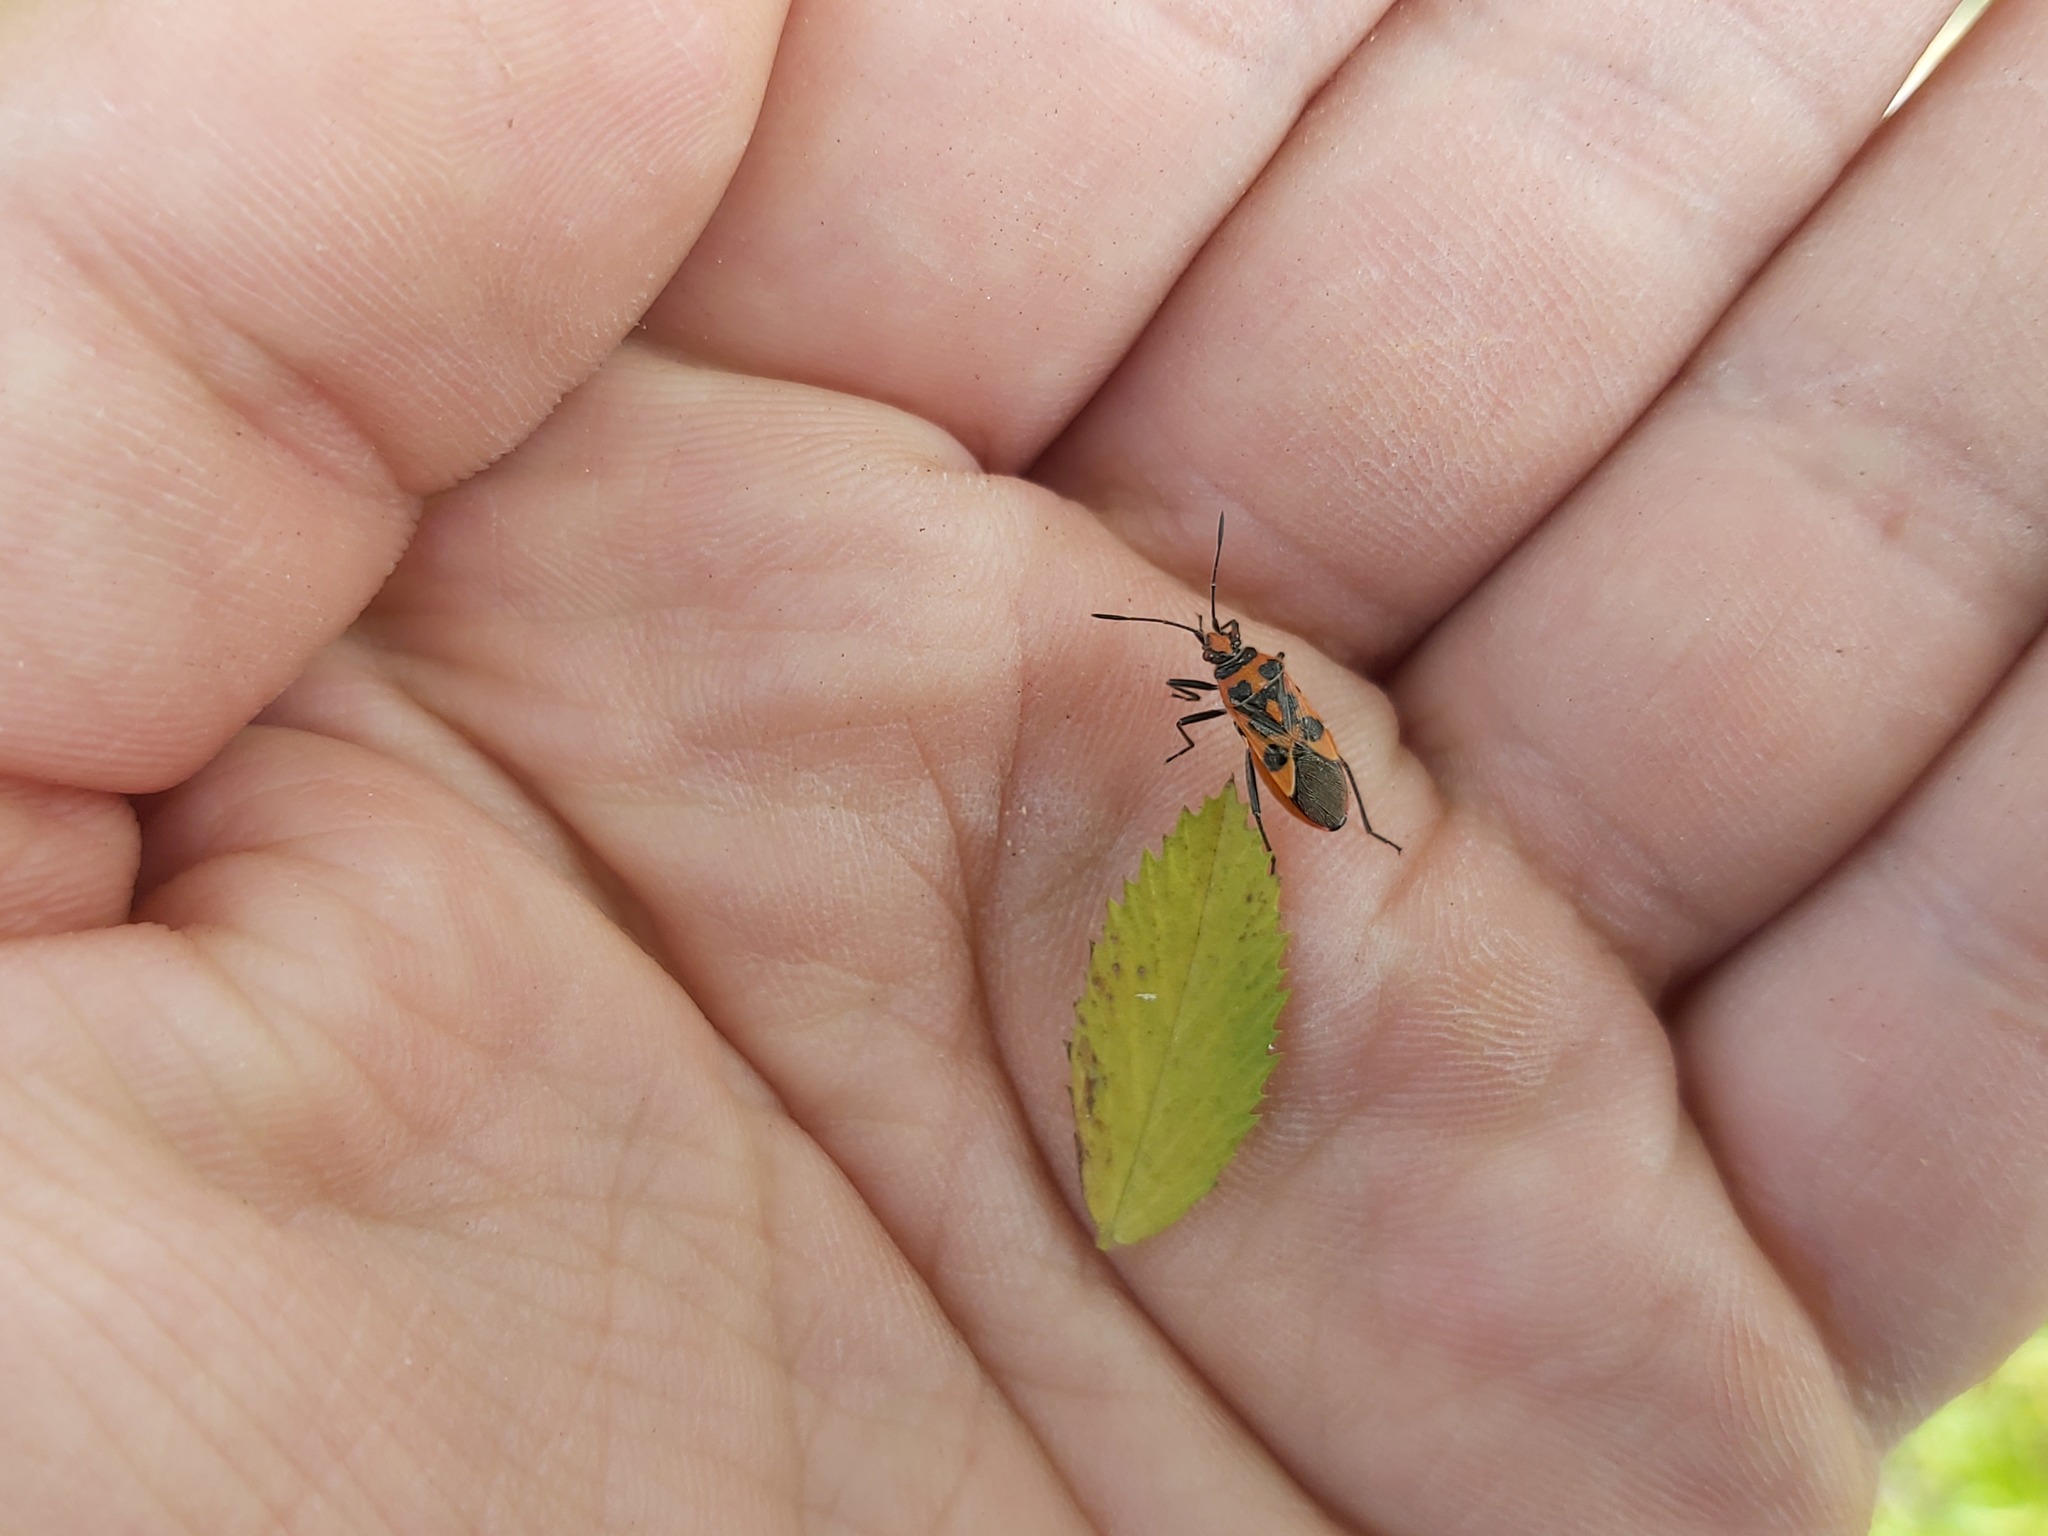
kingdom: Animalia
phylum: Arthropoda
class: Insecta
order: Hemiptera
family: Rhopalidae
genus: Corizus
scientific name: Corizus hyoscyami
